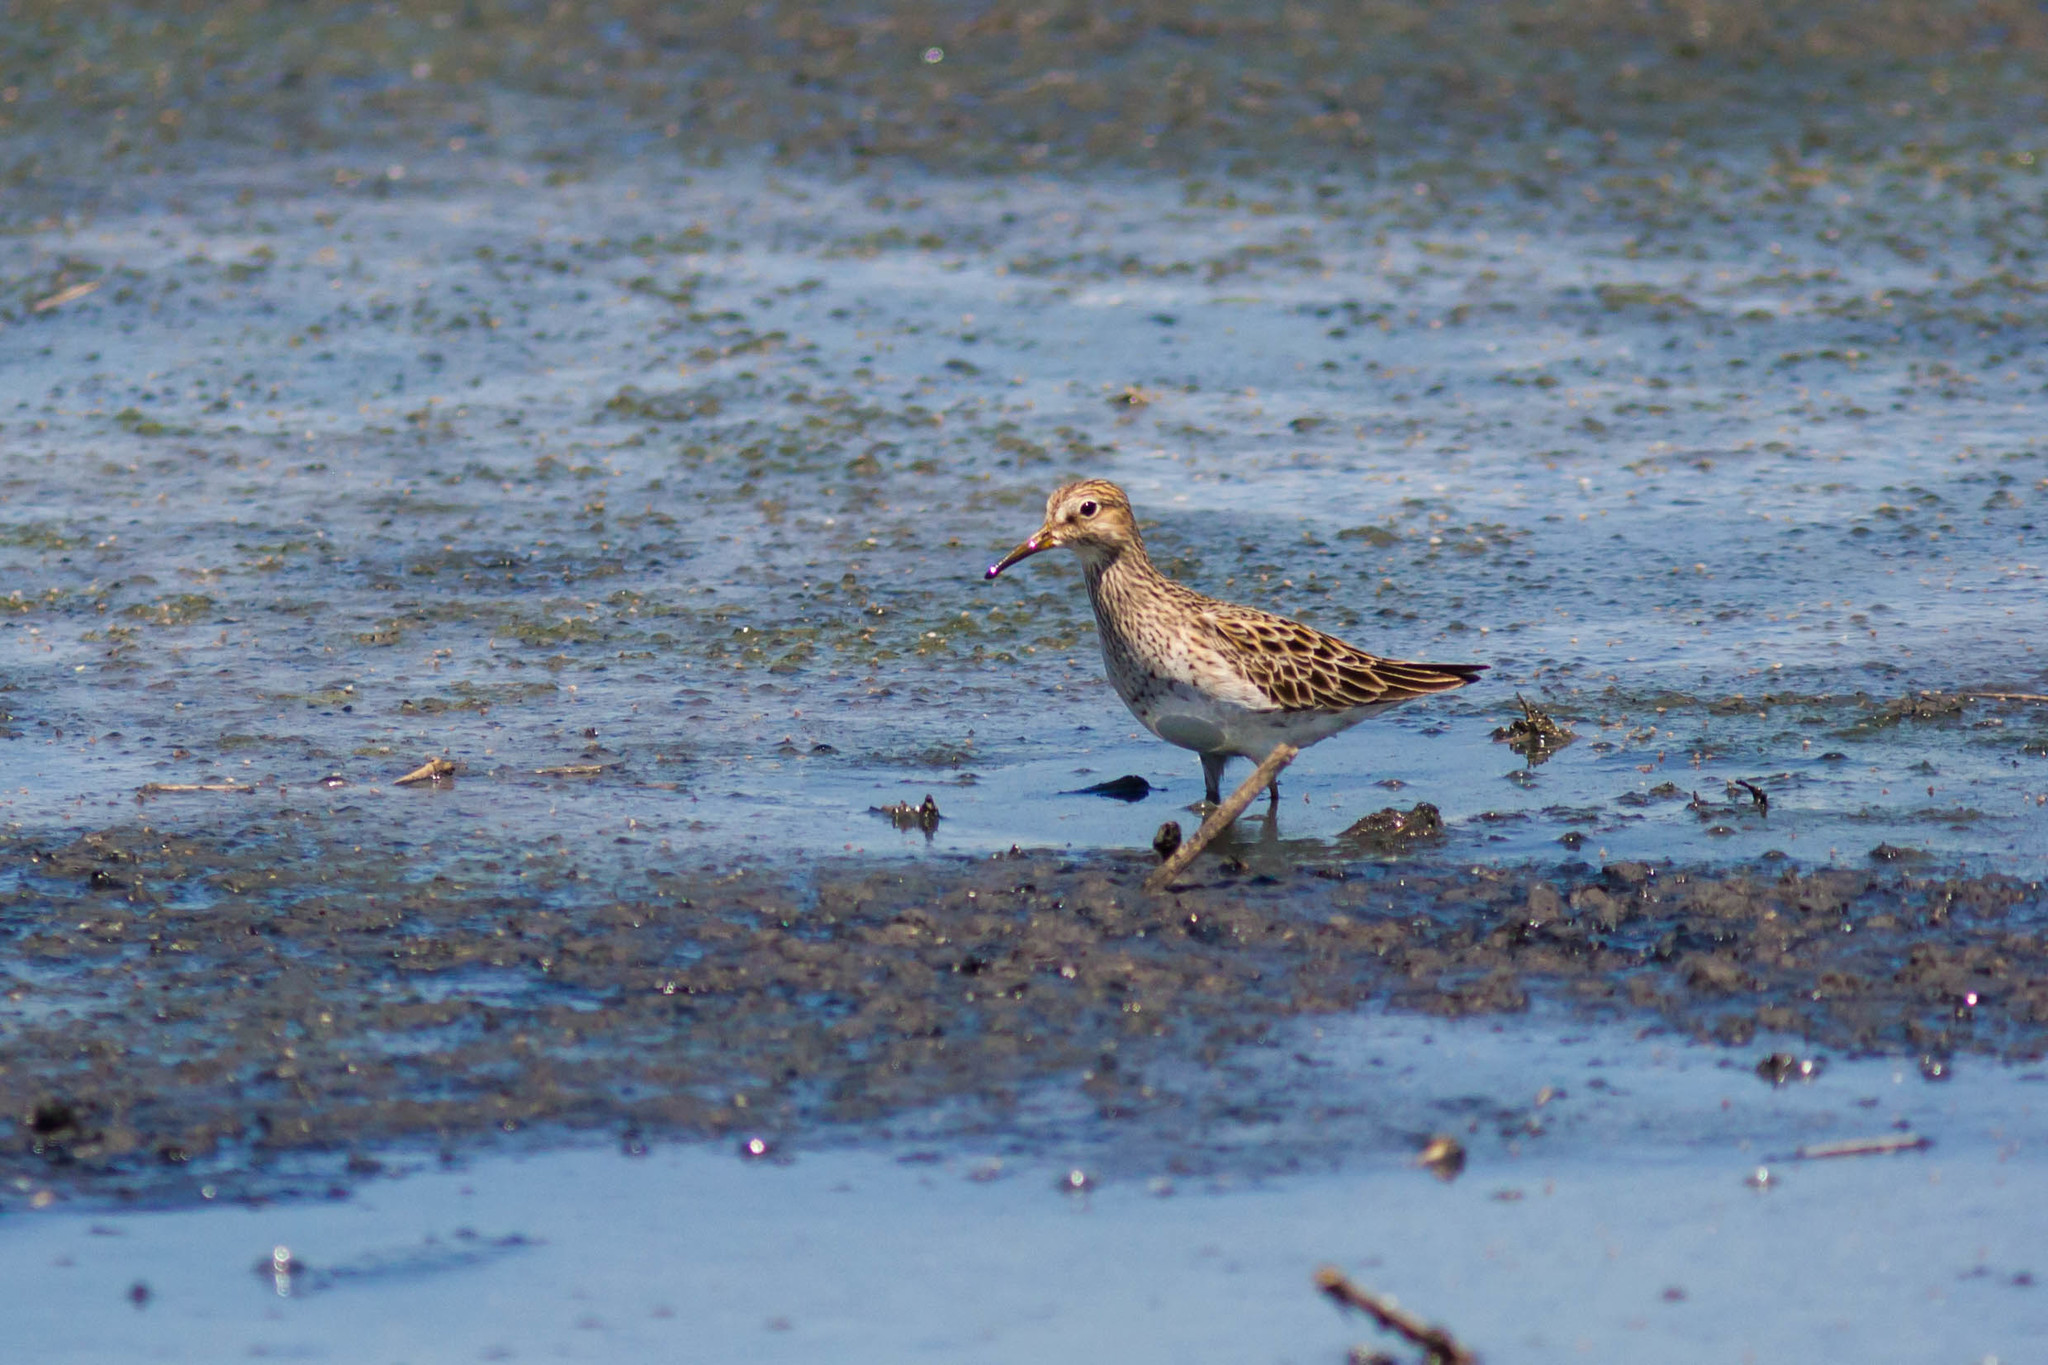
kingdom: Animalia
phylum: Chordata
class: Aves
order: Charadriiformes
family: Scolopacidae
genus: Calidris
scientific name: Calidris melanotos
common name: Pectoral sandpiper
